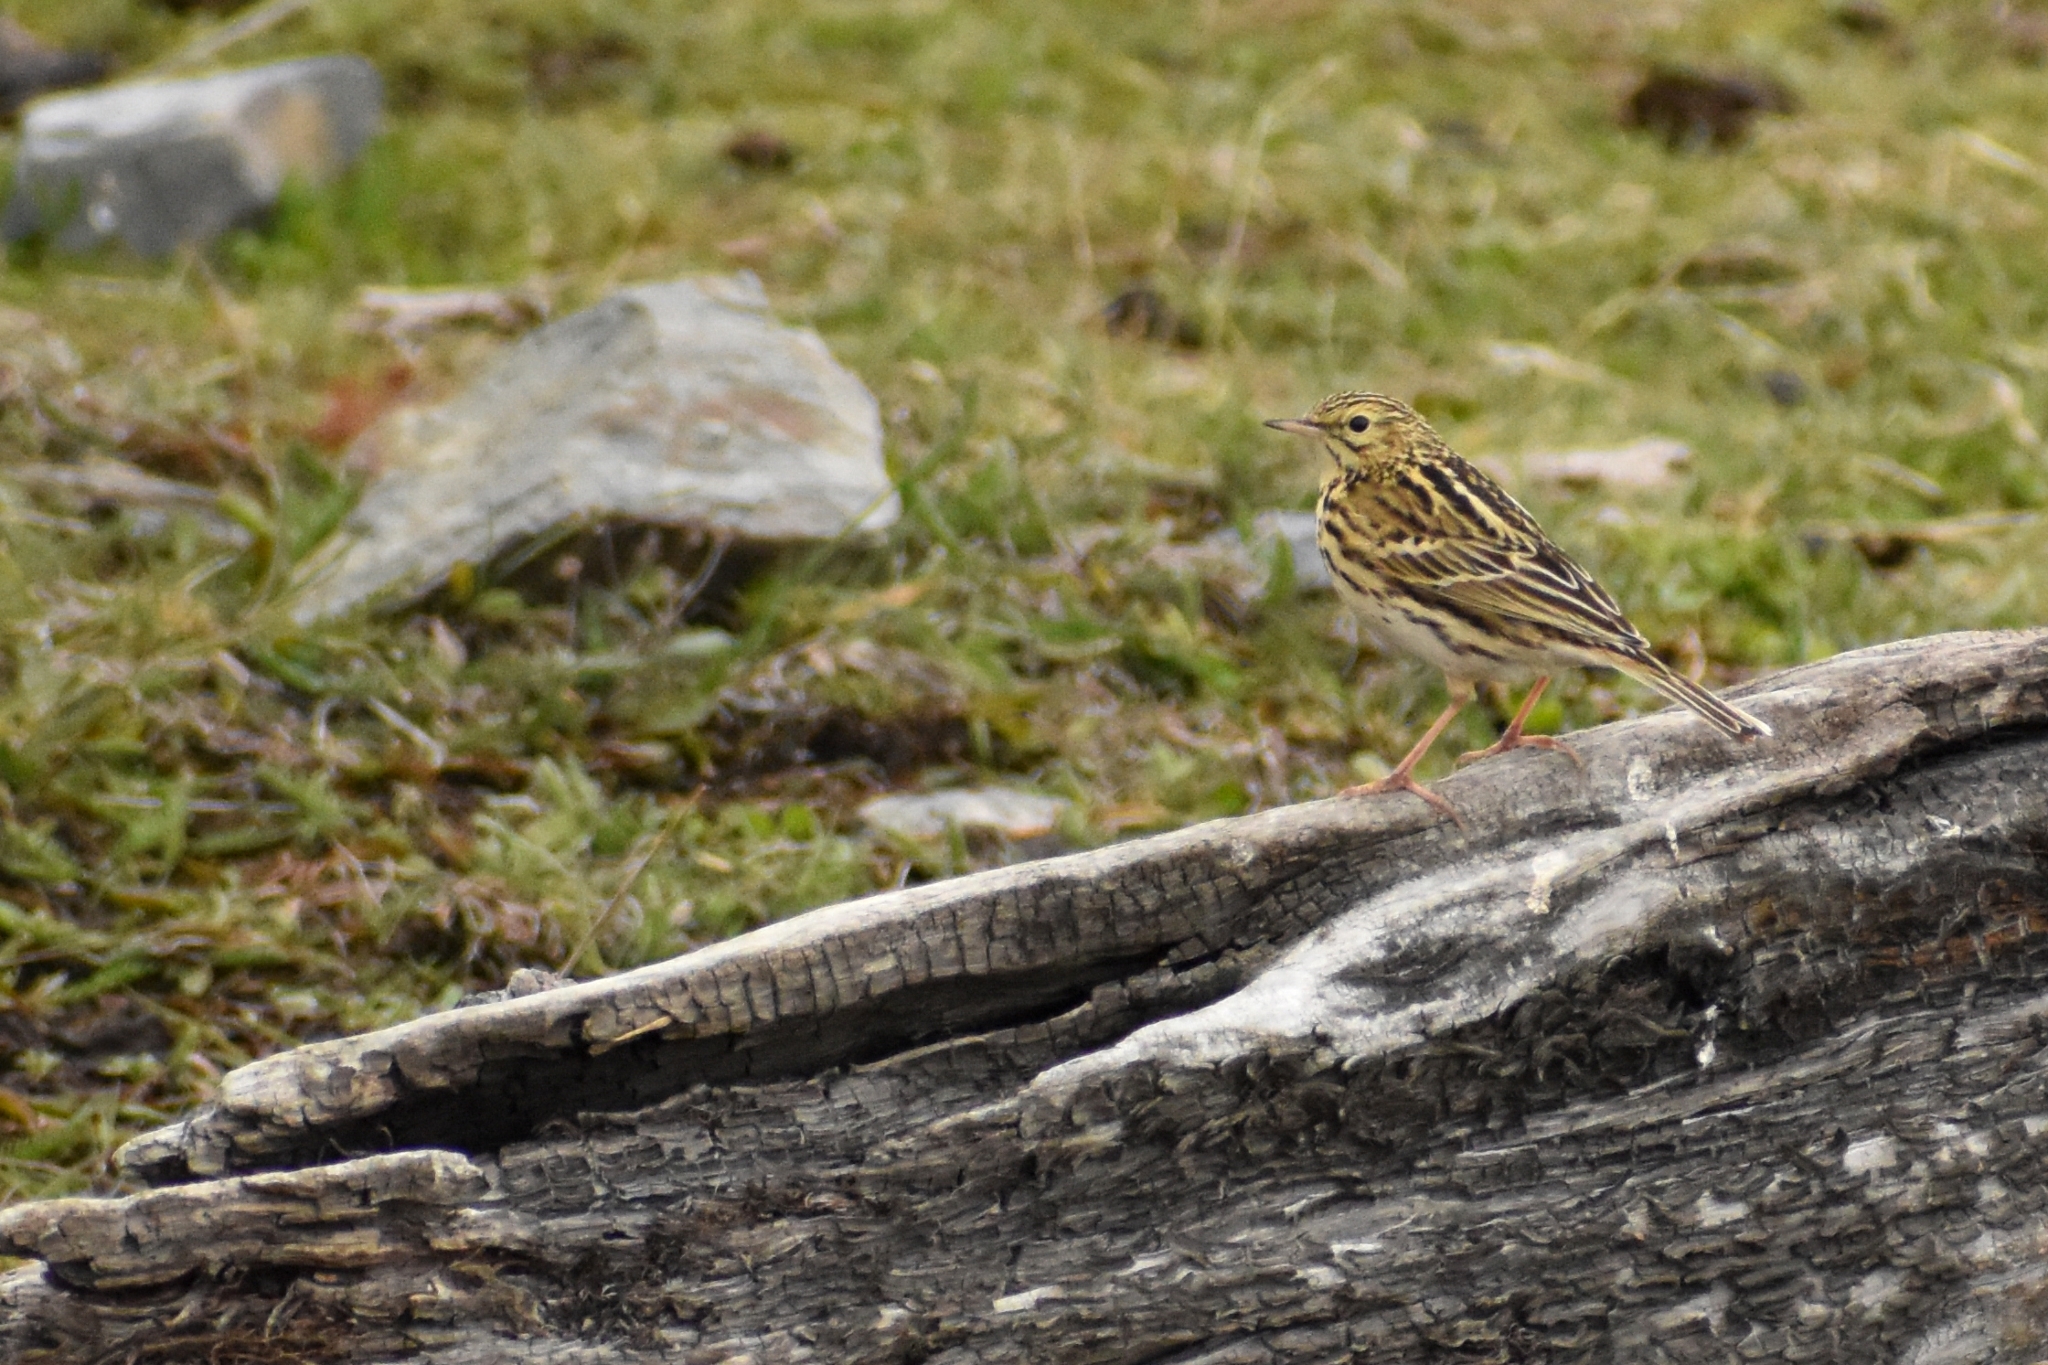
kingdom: Animalia
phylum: Chordata
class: Aves
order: Passeriformes
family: Motacillidae
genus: Anthus
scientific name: Anthus correndera
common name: Correndera pipit
